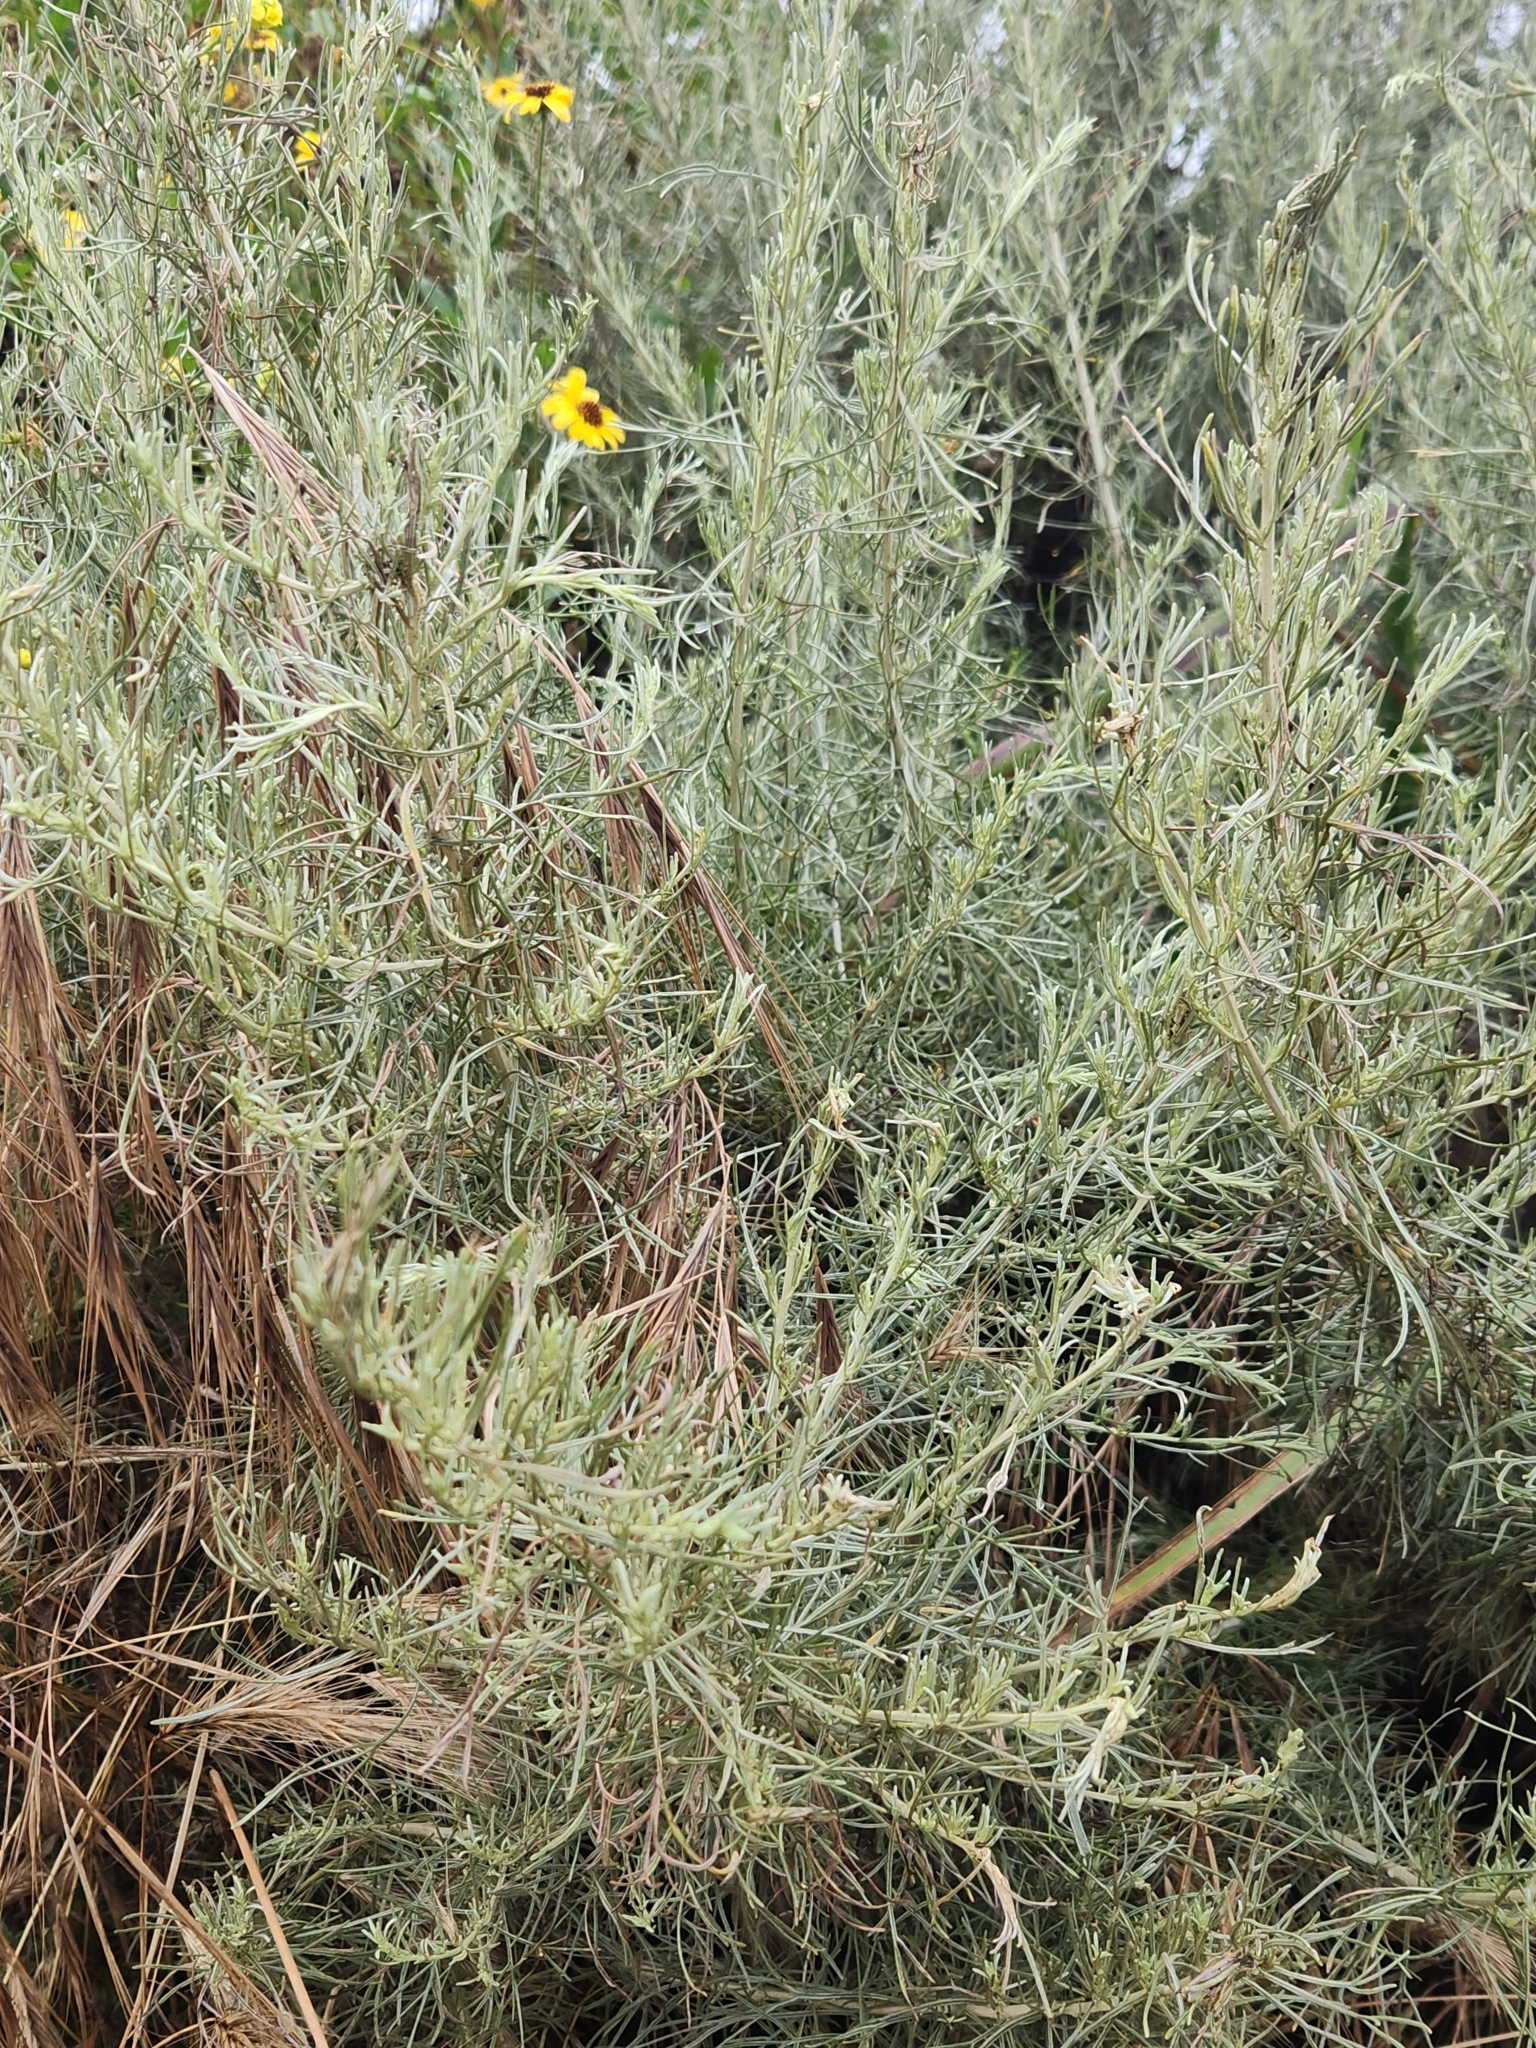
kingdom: Plantae
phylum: Tracheophyta
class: Magnoliopsida
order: Asterales
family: Asteraceae
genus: Artemisia
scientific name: Artemisia californica
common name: California sagebrush
